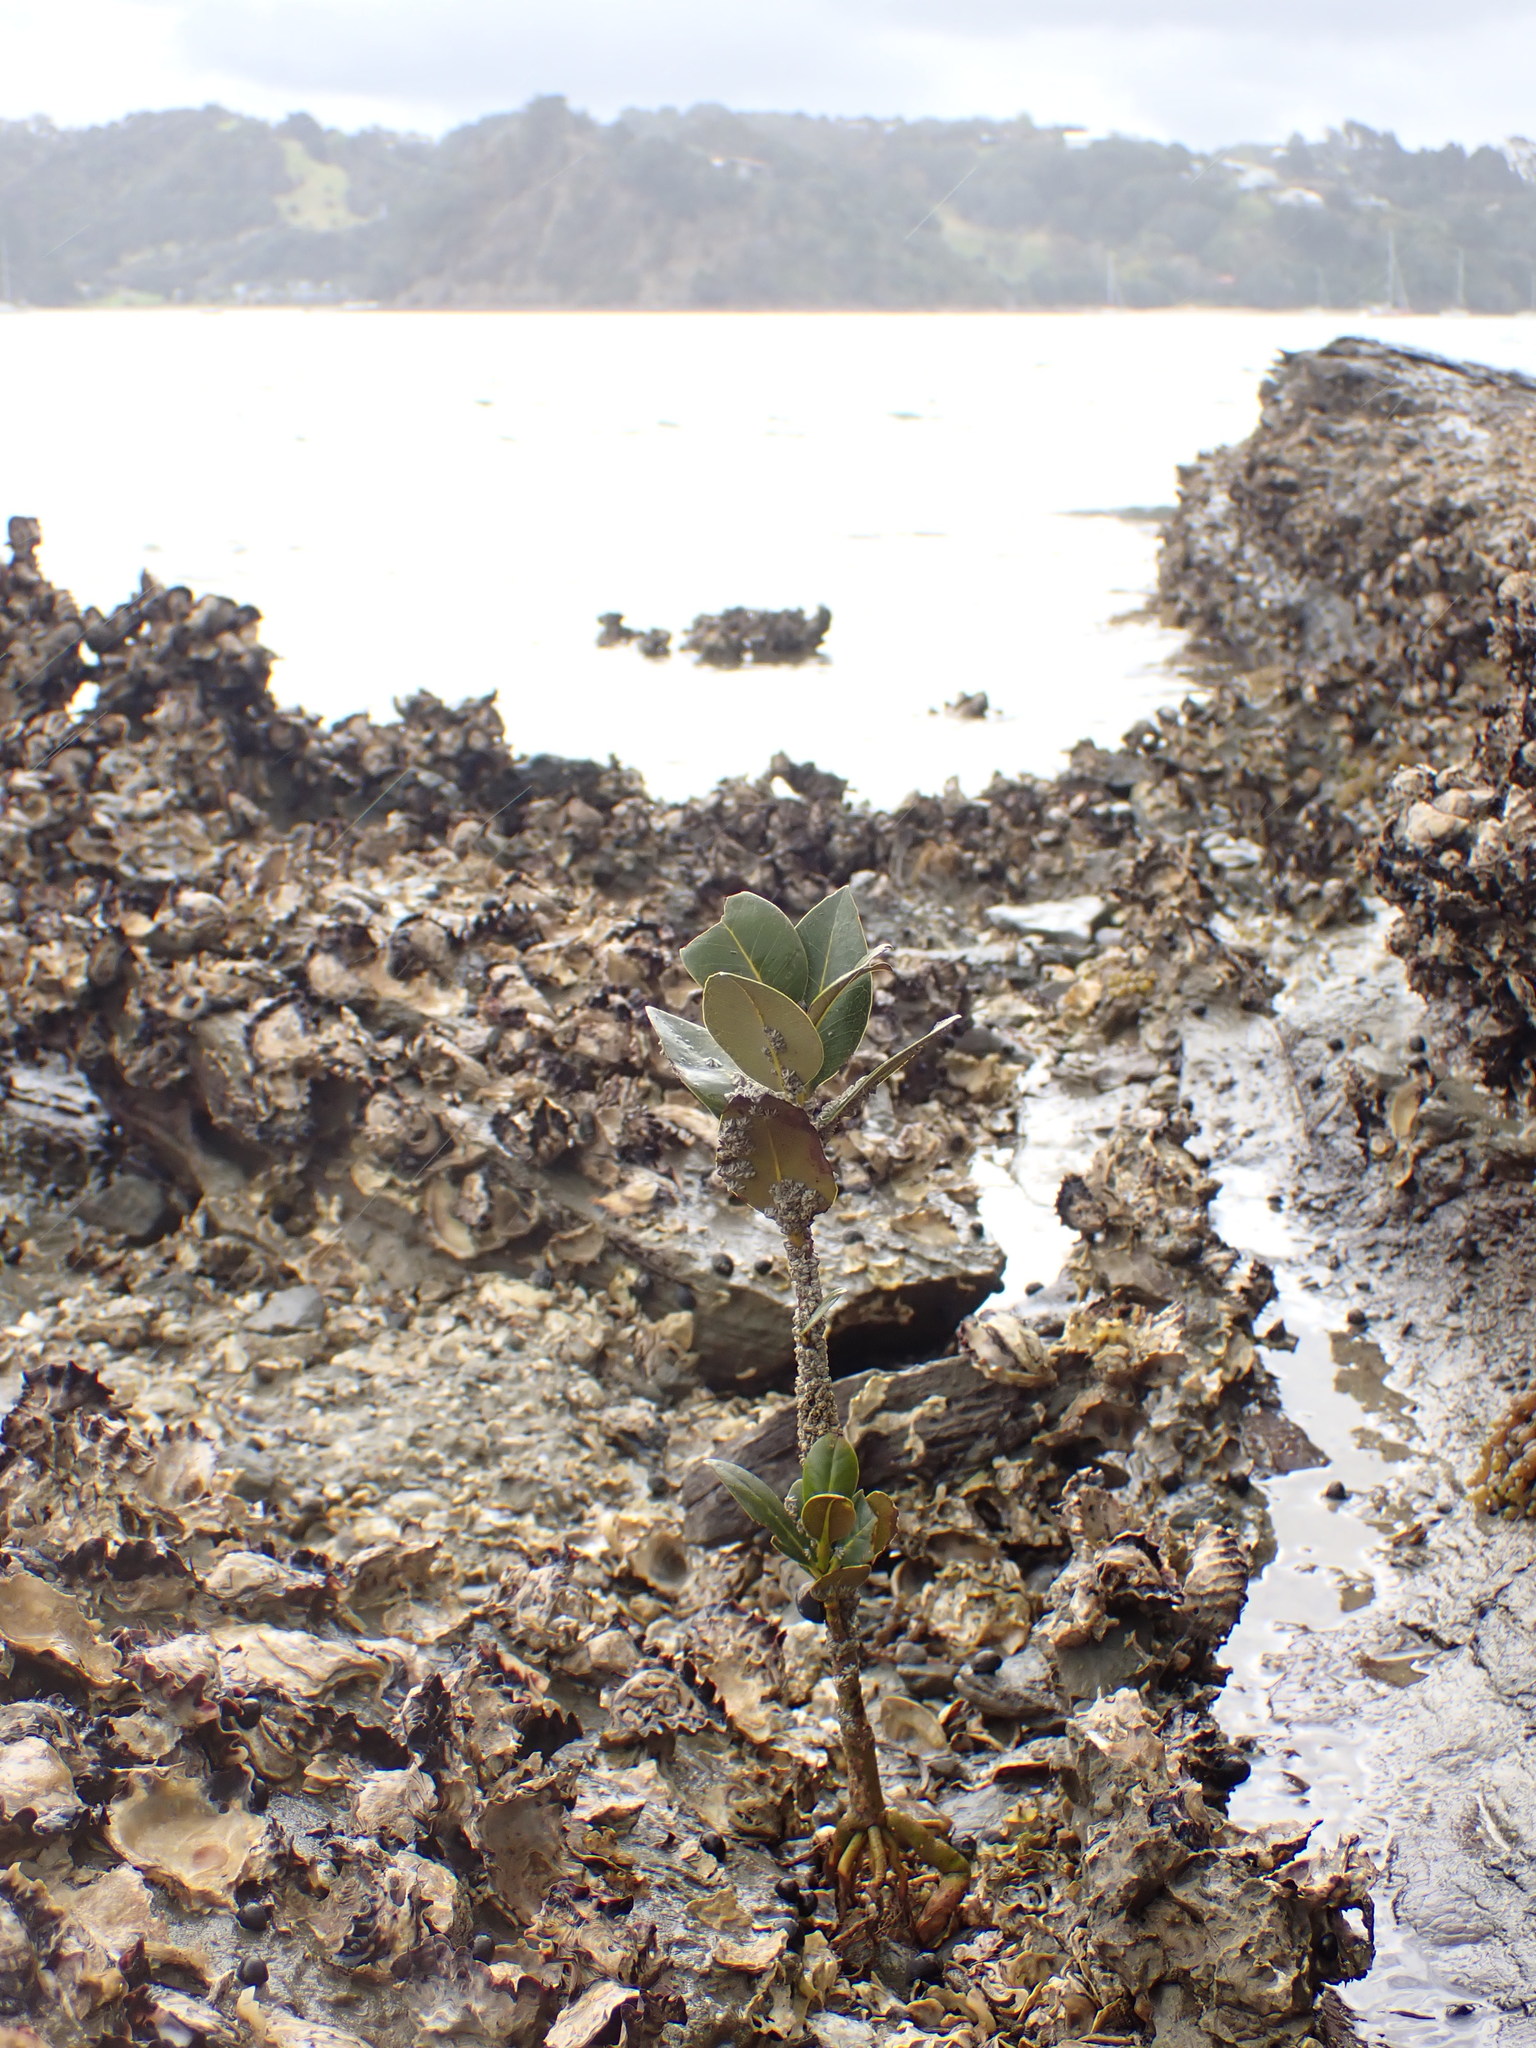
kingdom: Plantae
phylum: Tracheophyta
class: Magnoliopsida
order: Lamiales
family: Acanthaceae
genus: Avicennia
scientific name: Avicennia marina
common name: Gray mangrove
